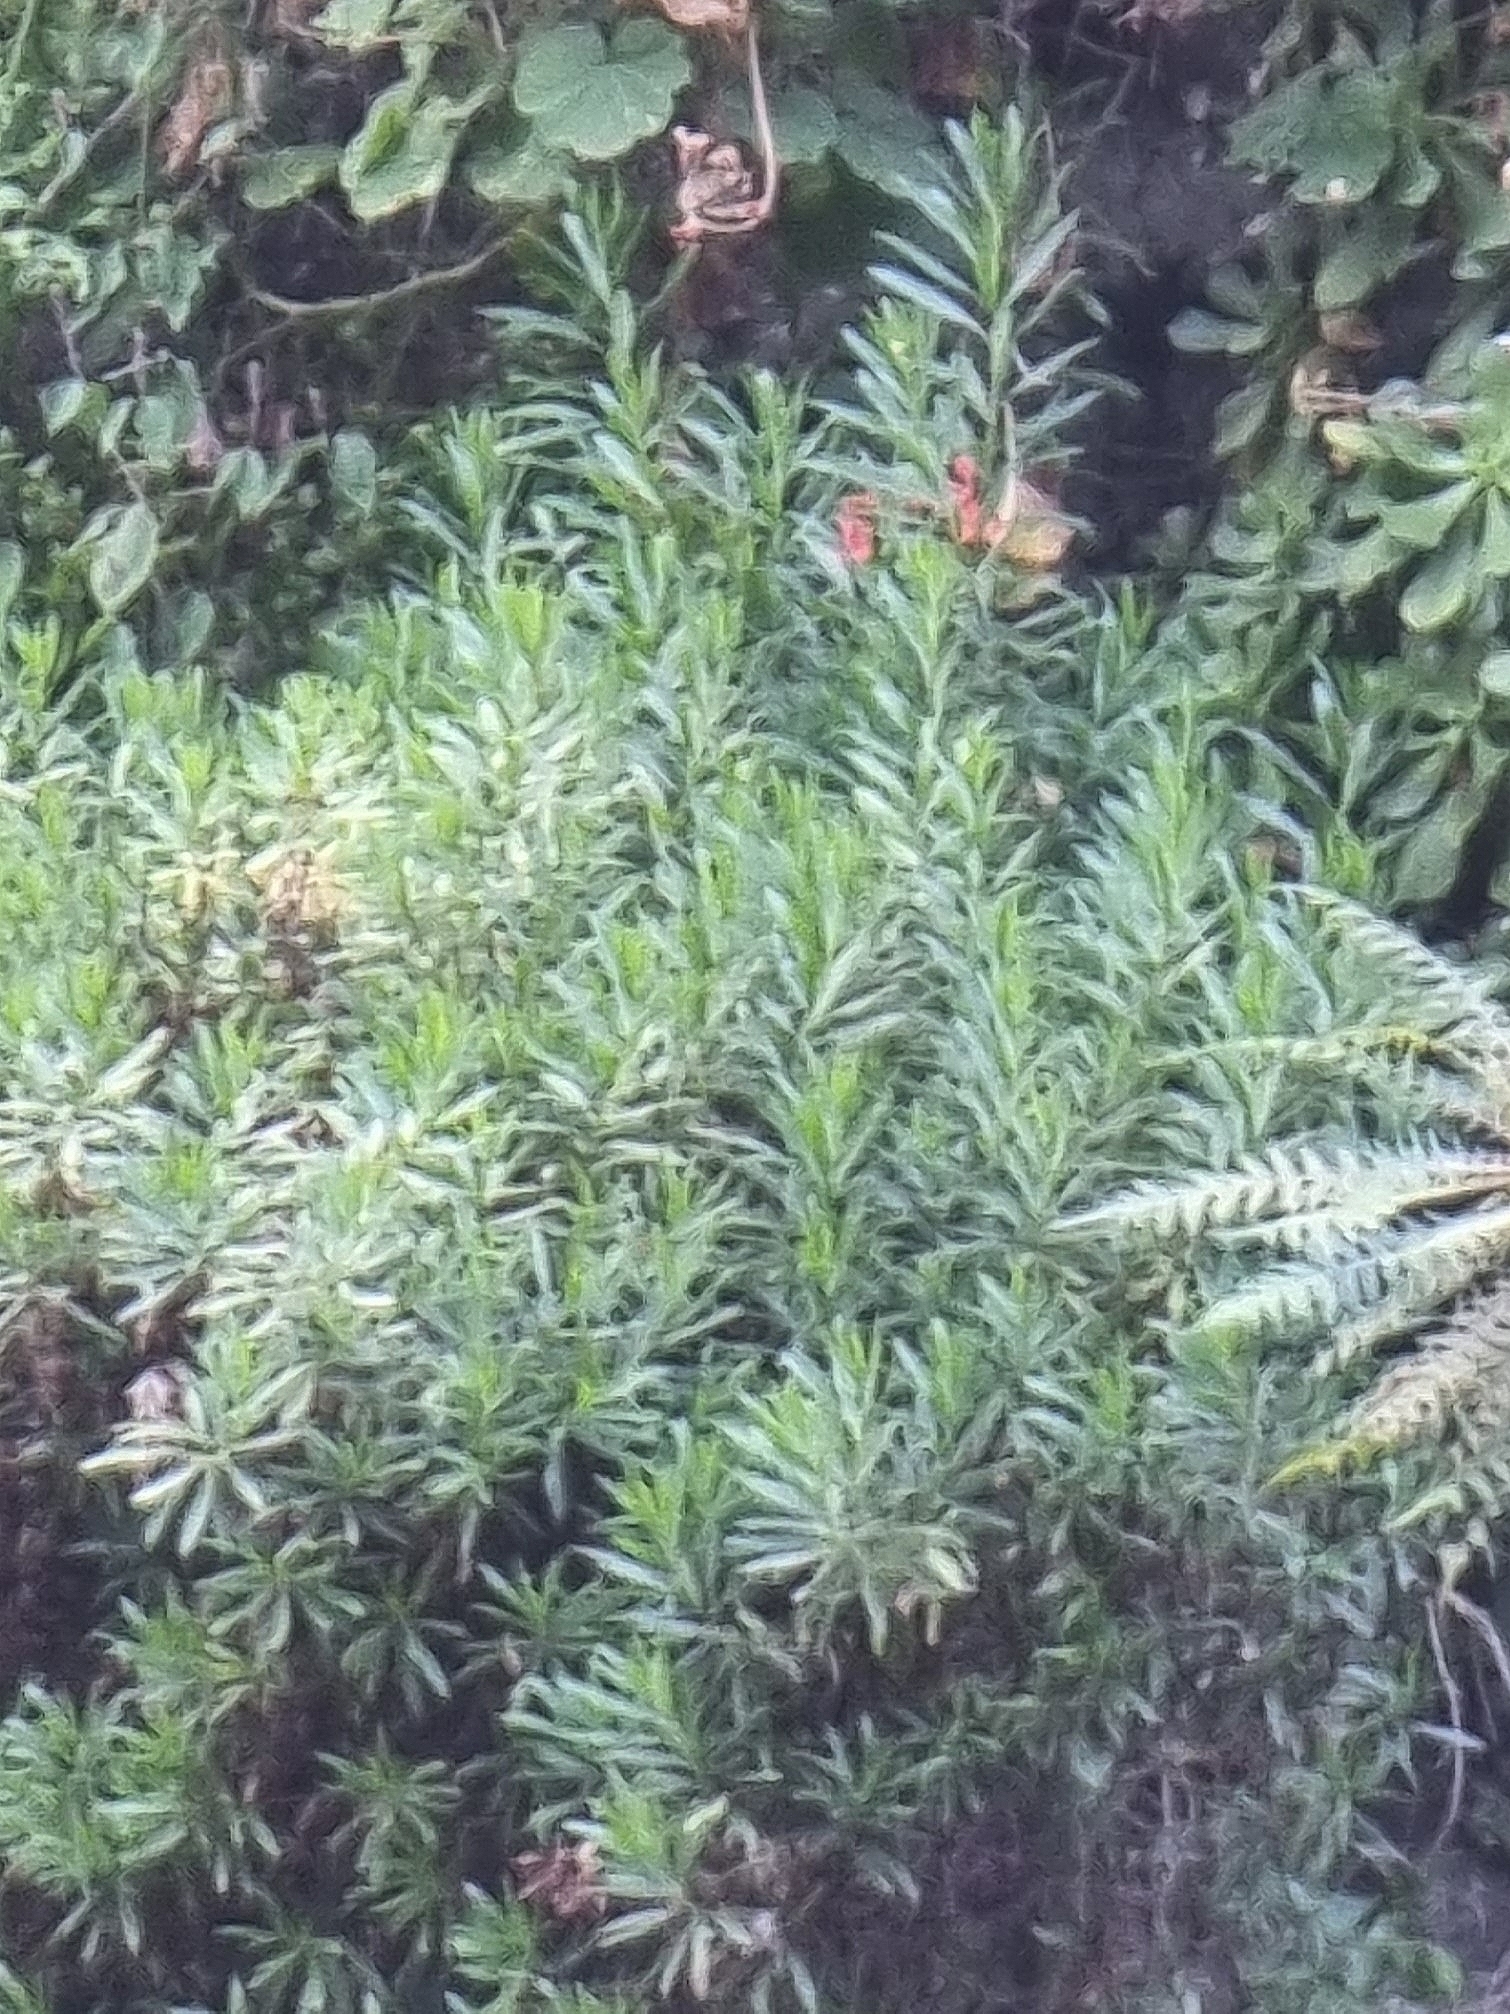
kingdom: Plantae
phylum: Tracheophyta
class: Magnoliopsida
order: Lamiales
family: Plantaginaceae
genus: Globularia
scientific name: Globularia salicina
